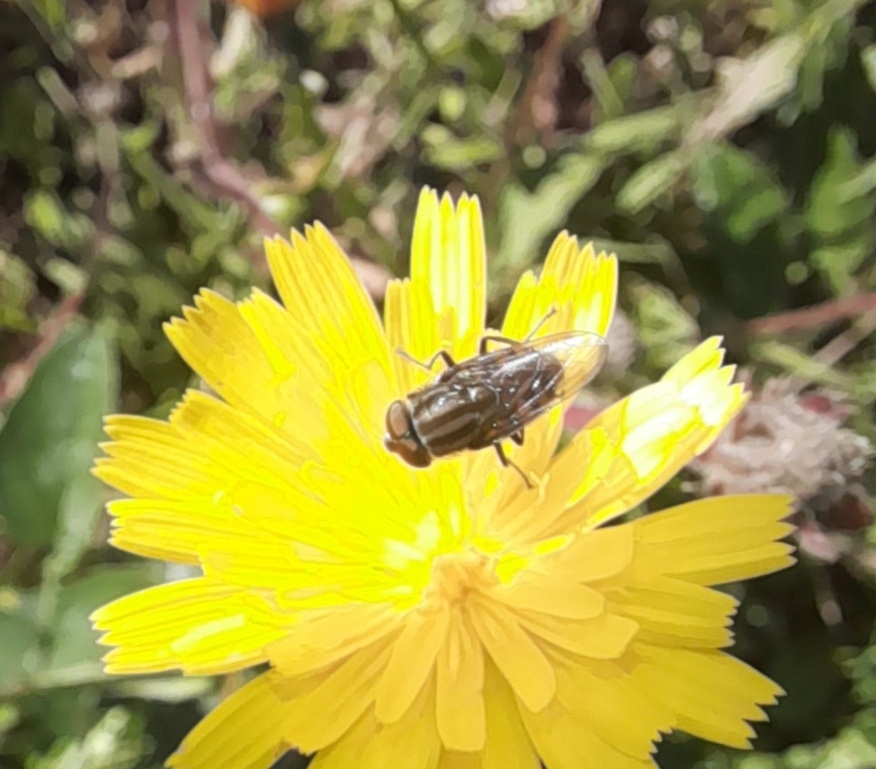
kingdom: Animalia
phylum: Arthropoda
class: Insecta
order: Diptera
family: Calliphoridae
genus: Stomorhina
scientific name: Stomorhina lunata
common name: Locust blowfly
